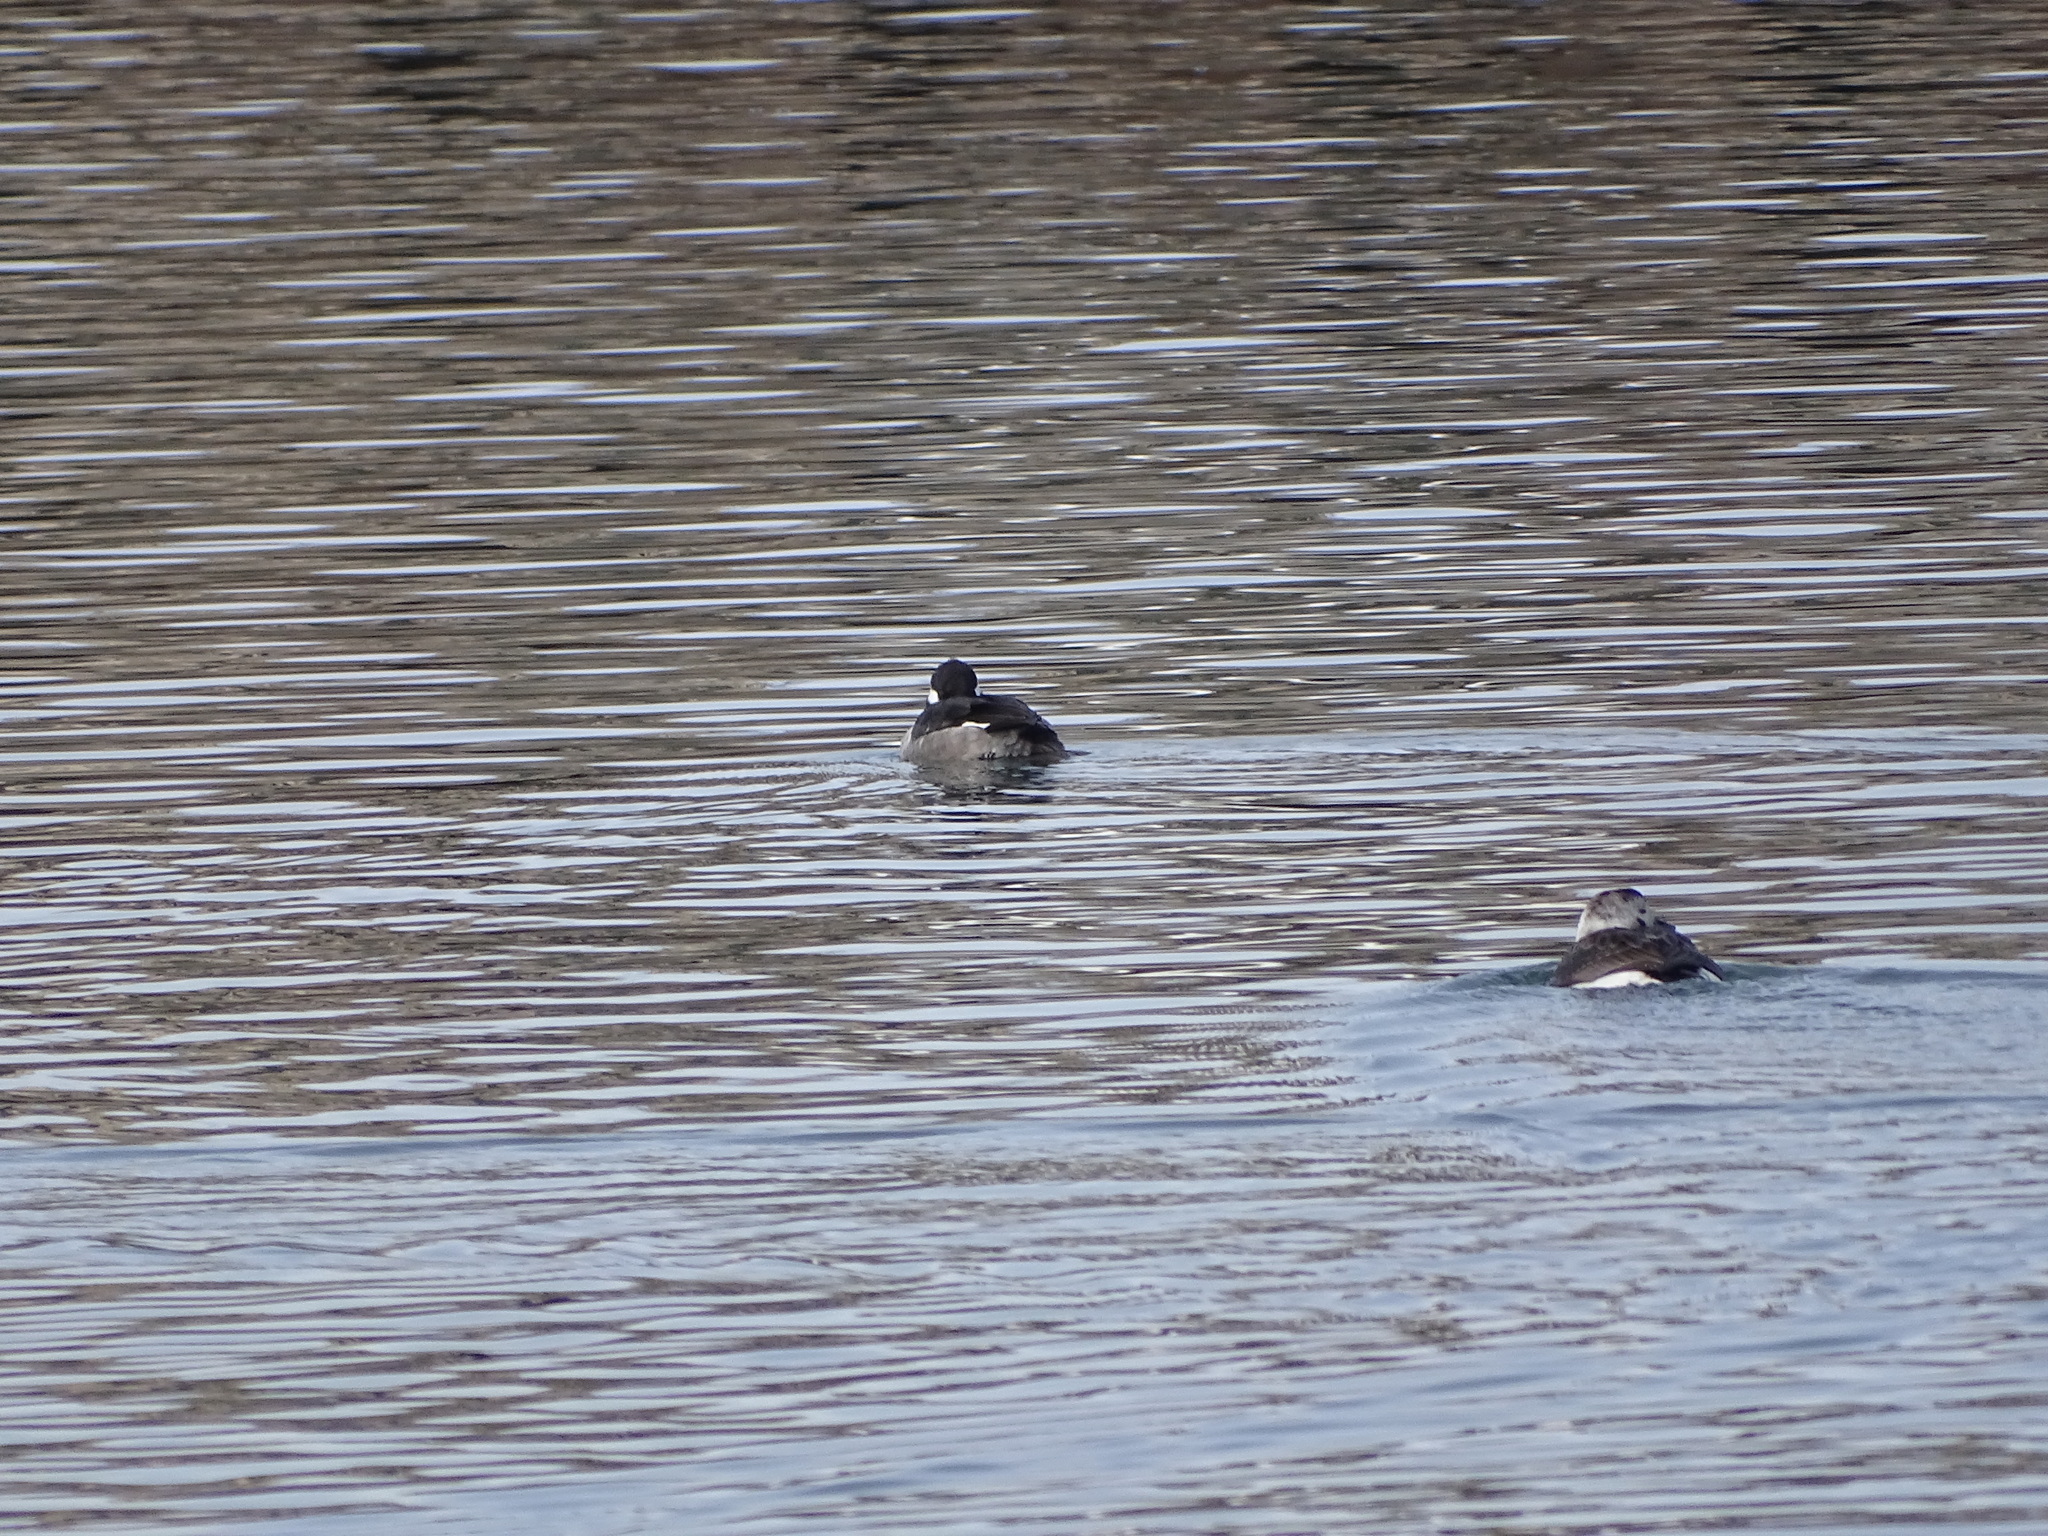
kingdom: Animalia
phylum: Chordata
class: Aves
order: Anseriformes
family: Anatidae
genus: Bucephala
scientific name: Bucephala albeola
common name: Bufflehead
